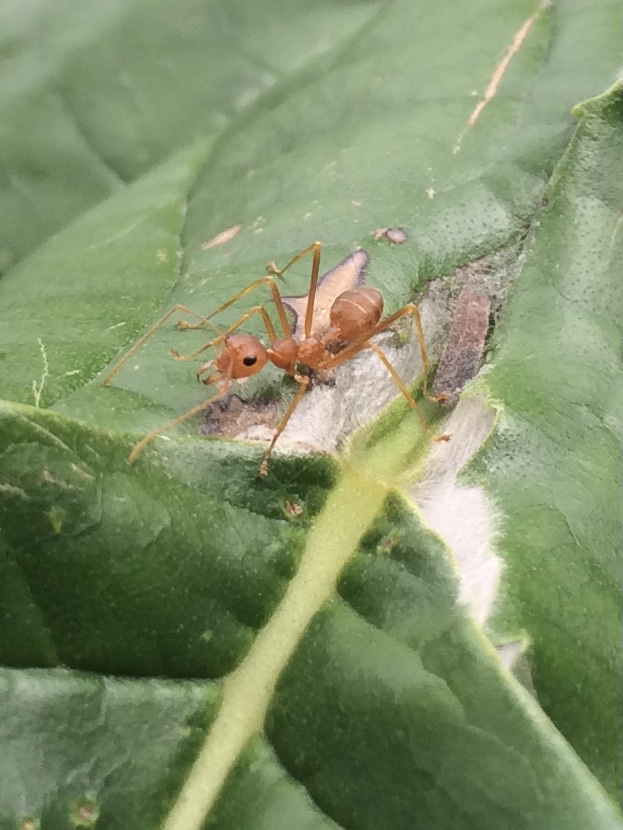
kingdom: Animalia
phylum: Arthropoda
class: Insecta
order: Hymenoptera
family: Formicidae
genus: Oecophylla
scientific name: Oecophylla smaragdina
